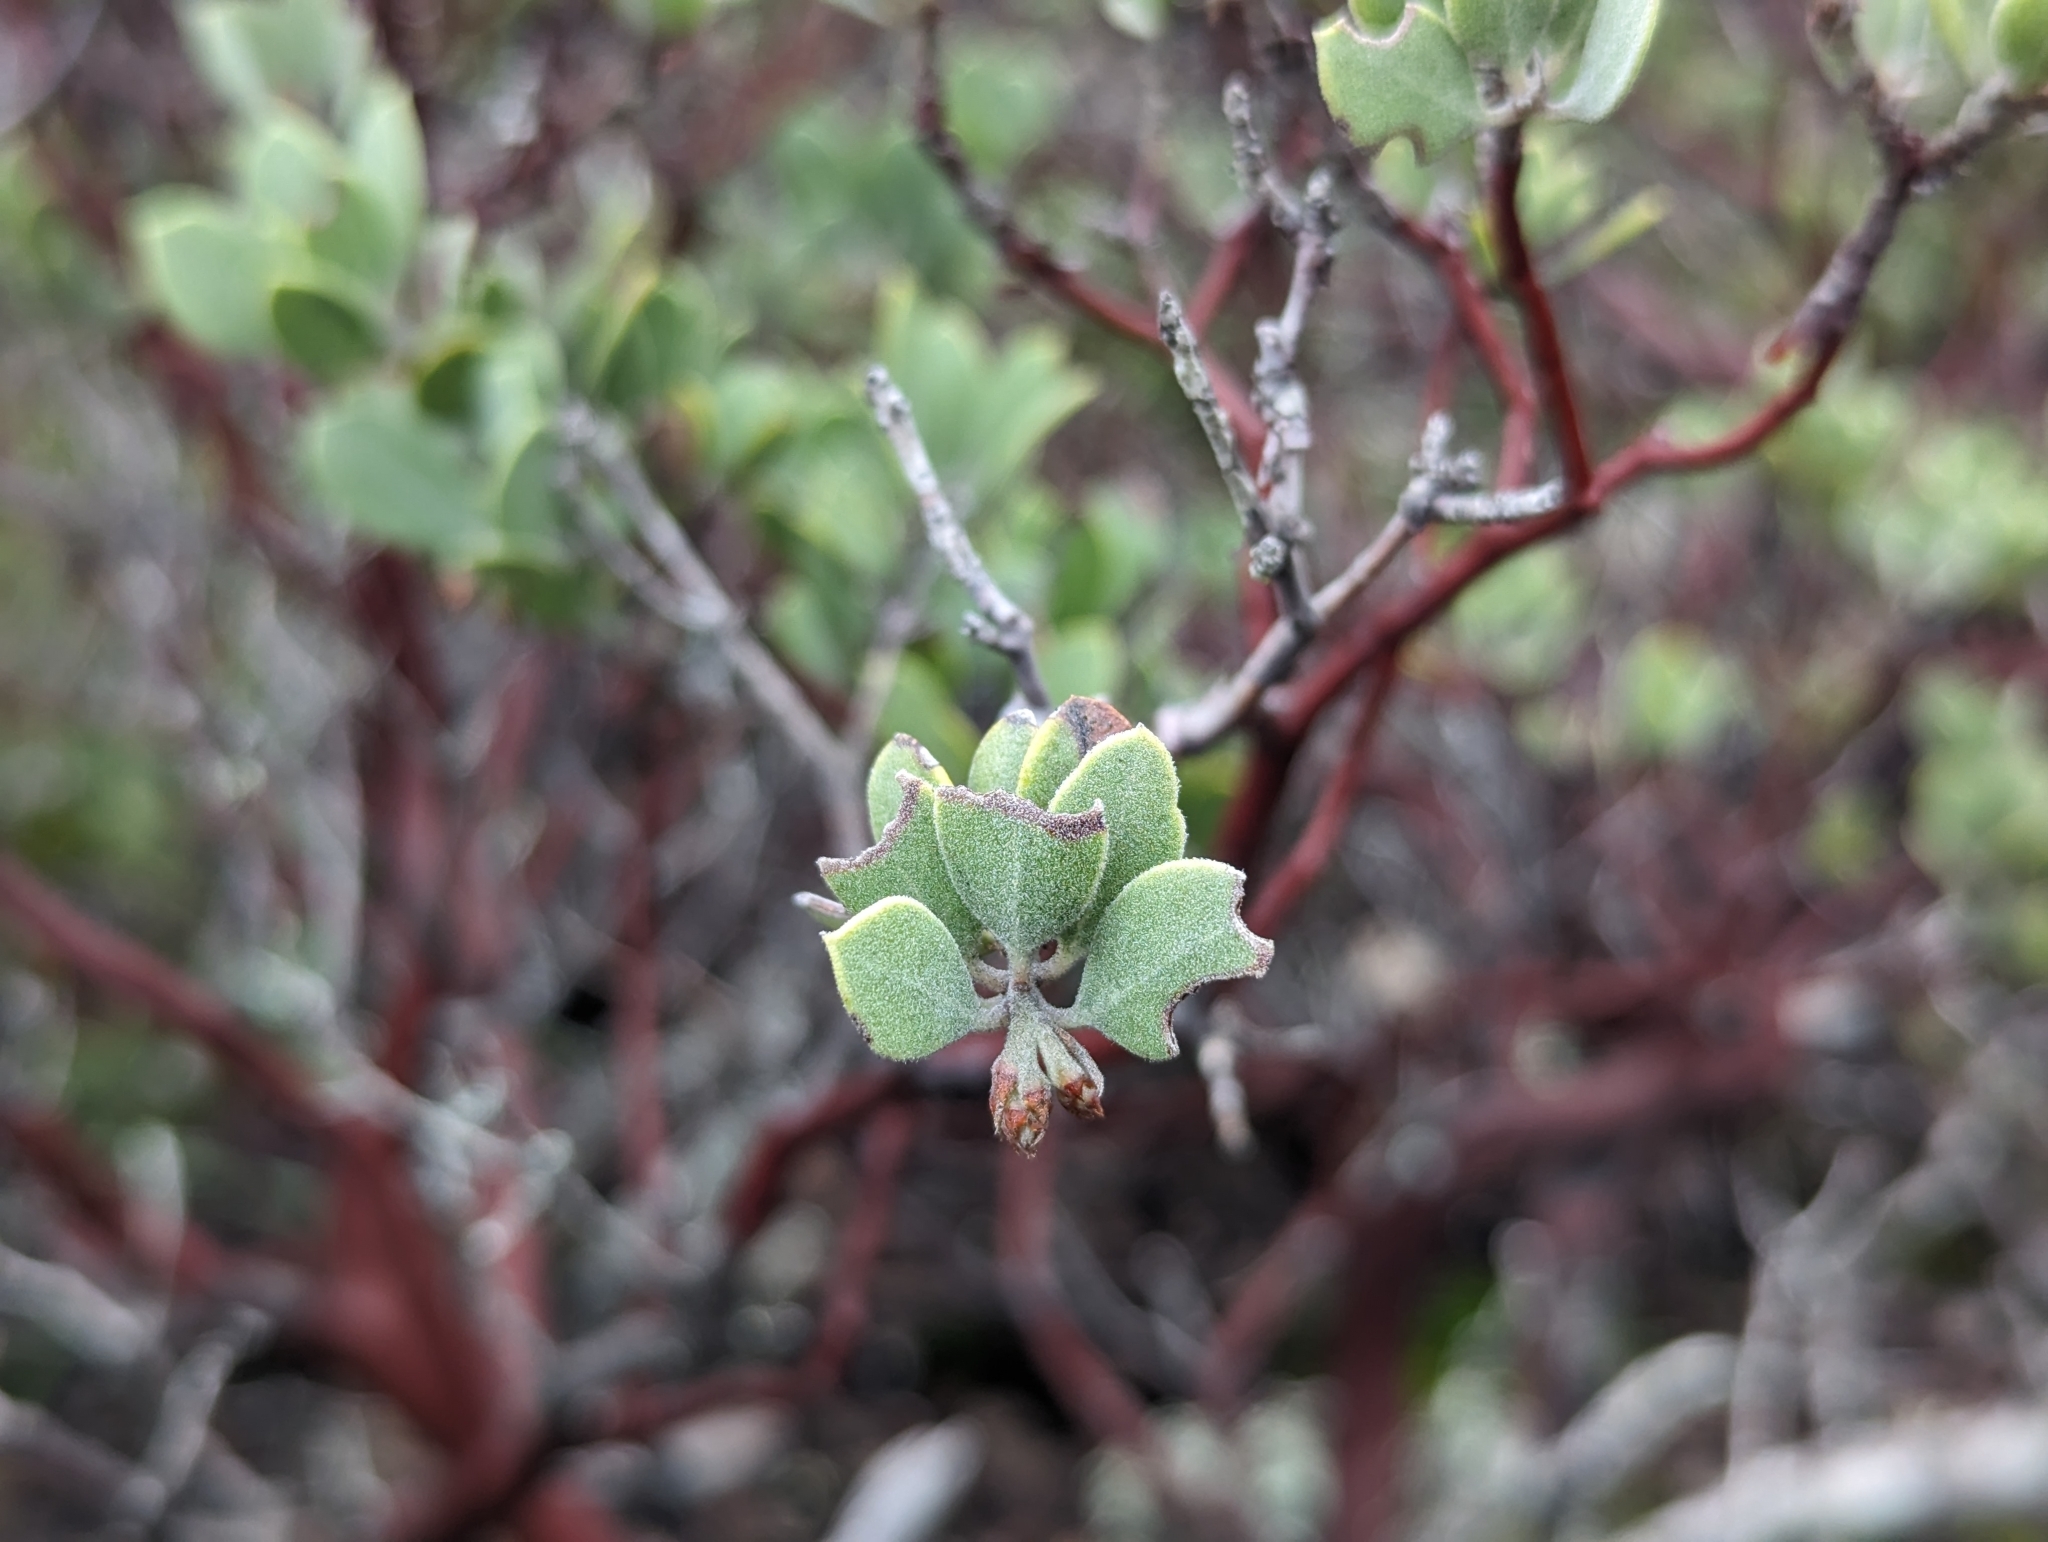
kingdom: Plantae
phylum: Tracheophyta
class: Magnoliopsida
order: Ericales
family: Ericaceae
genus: Arctostaphylos
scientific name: Arctostaphylos montana
